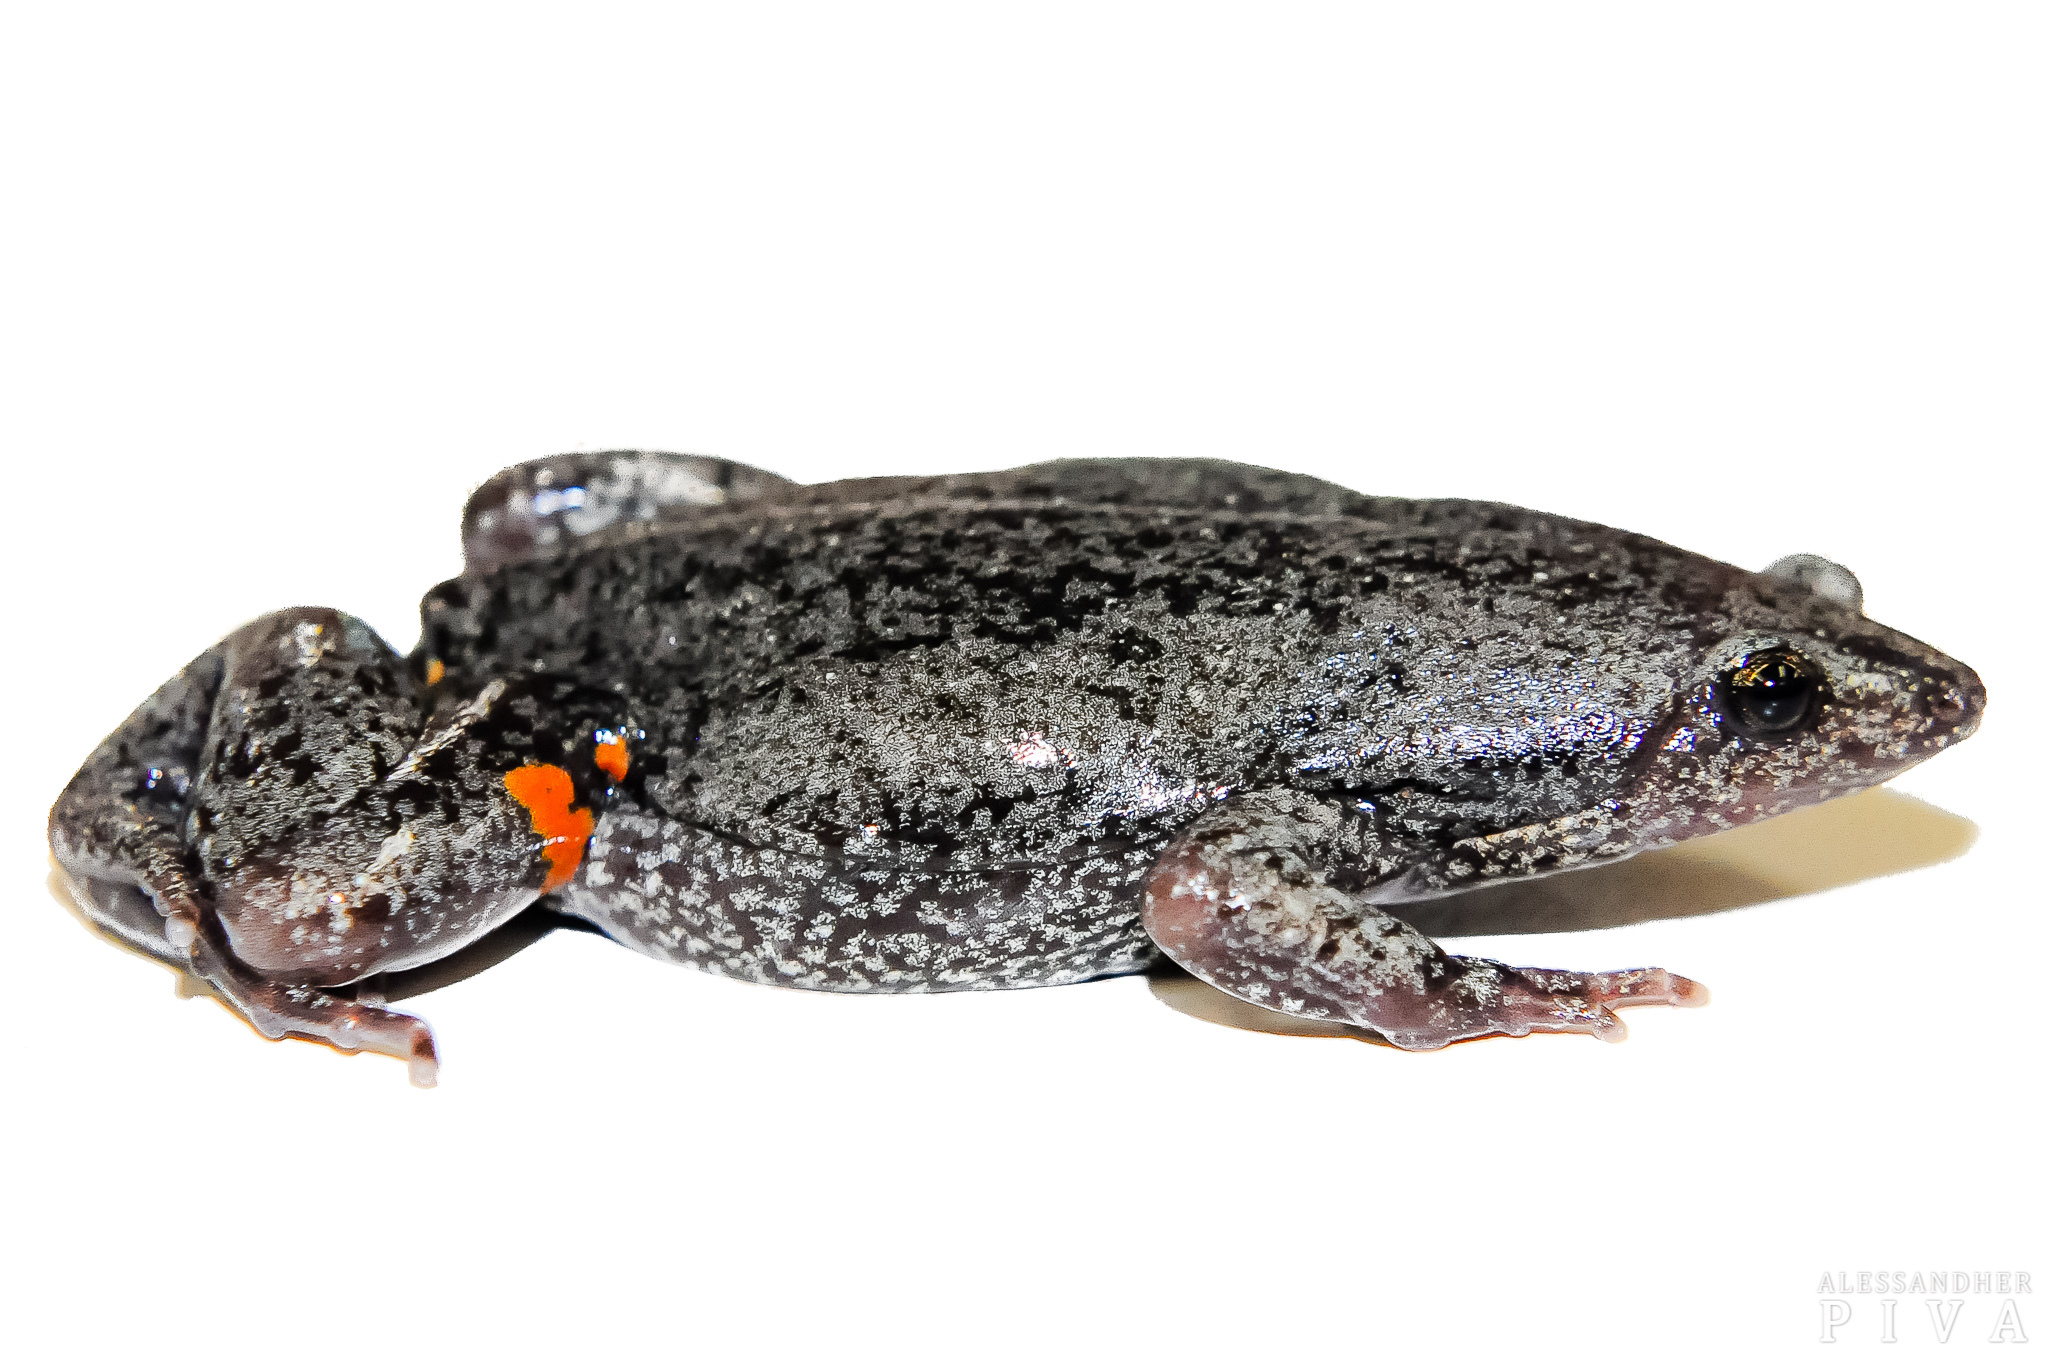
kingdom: Animalia
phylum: Chordata
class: Amphibia
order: Anura
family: Microhylidae
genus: Elachistocleis
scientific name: Elachistocleis corumbaensis
